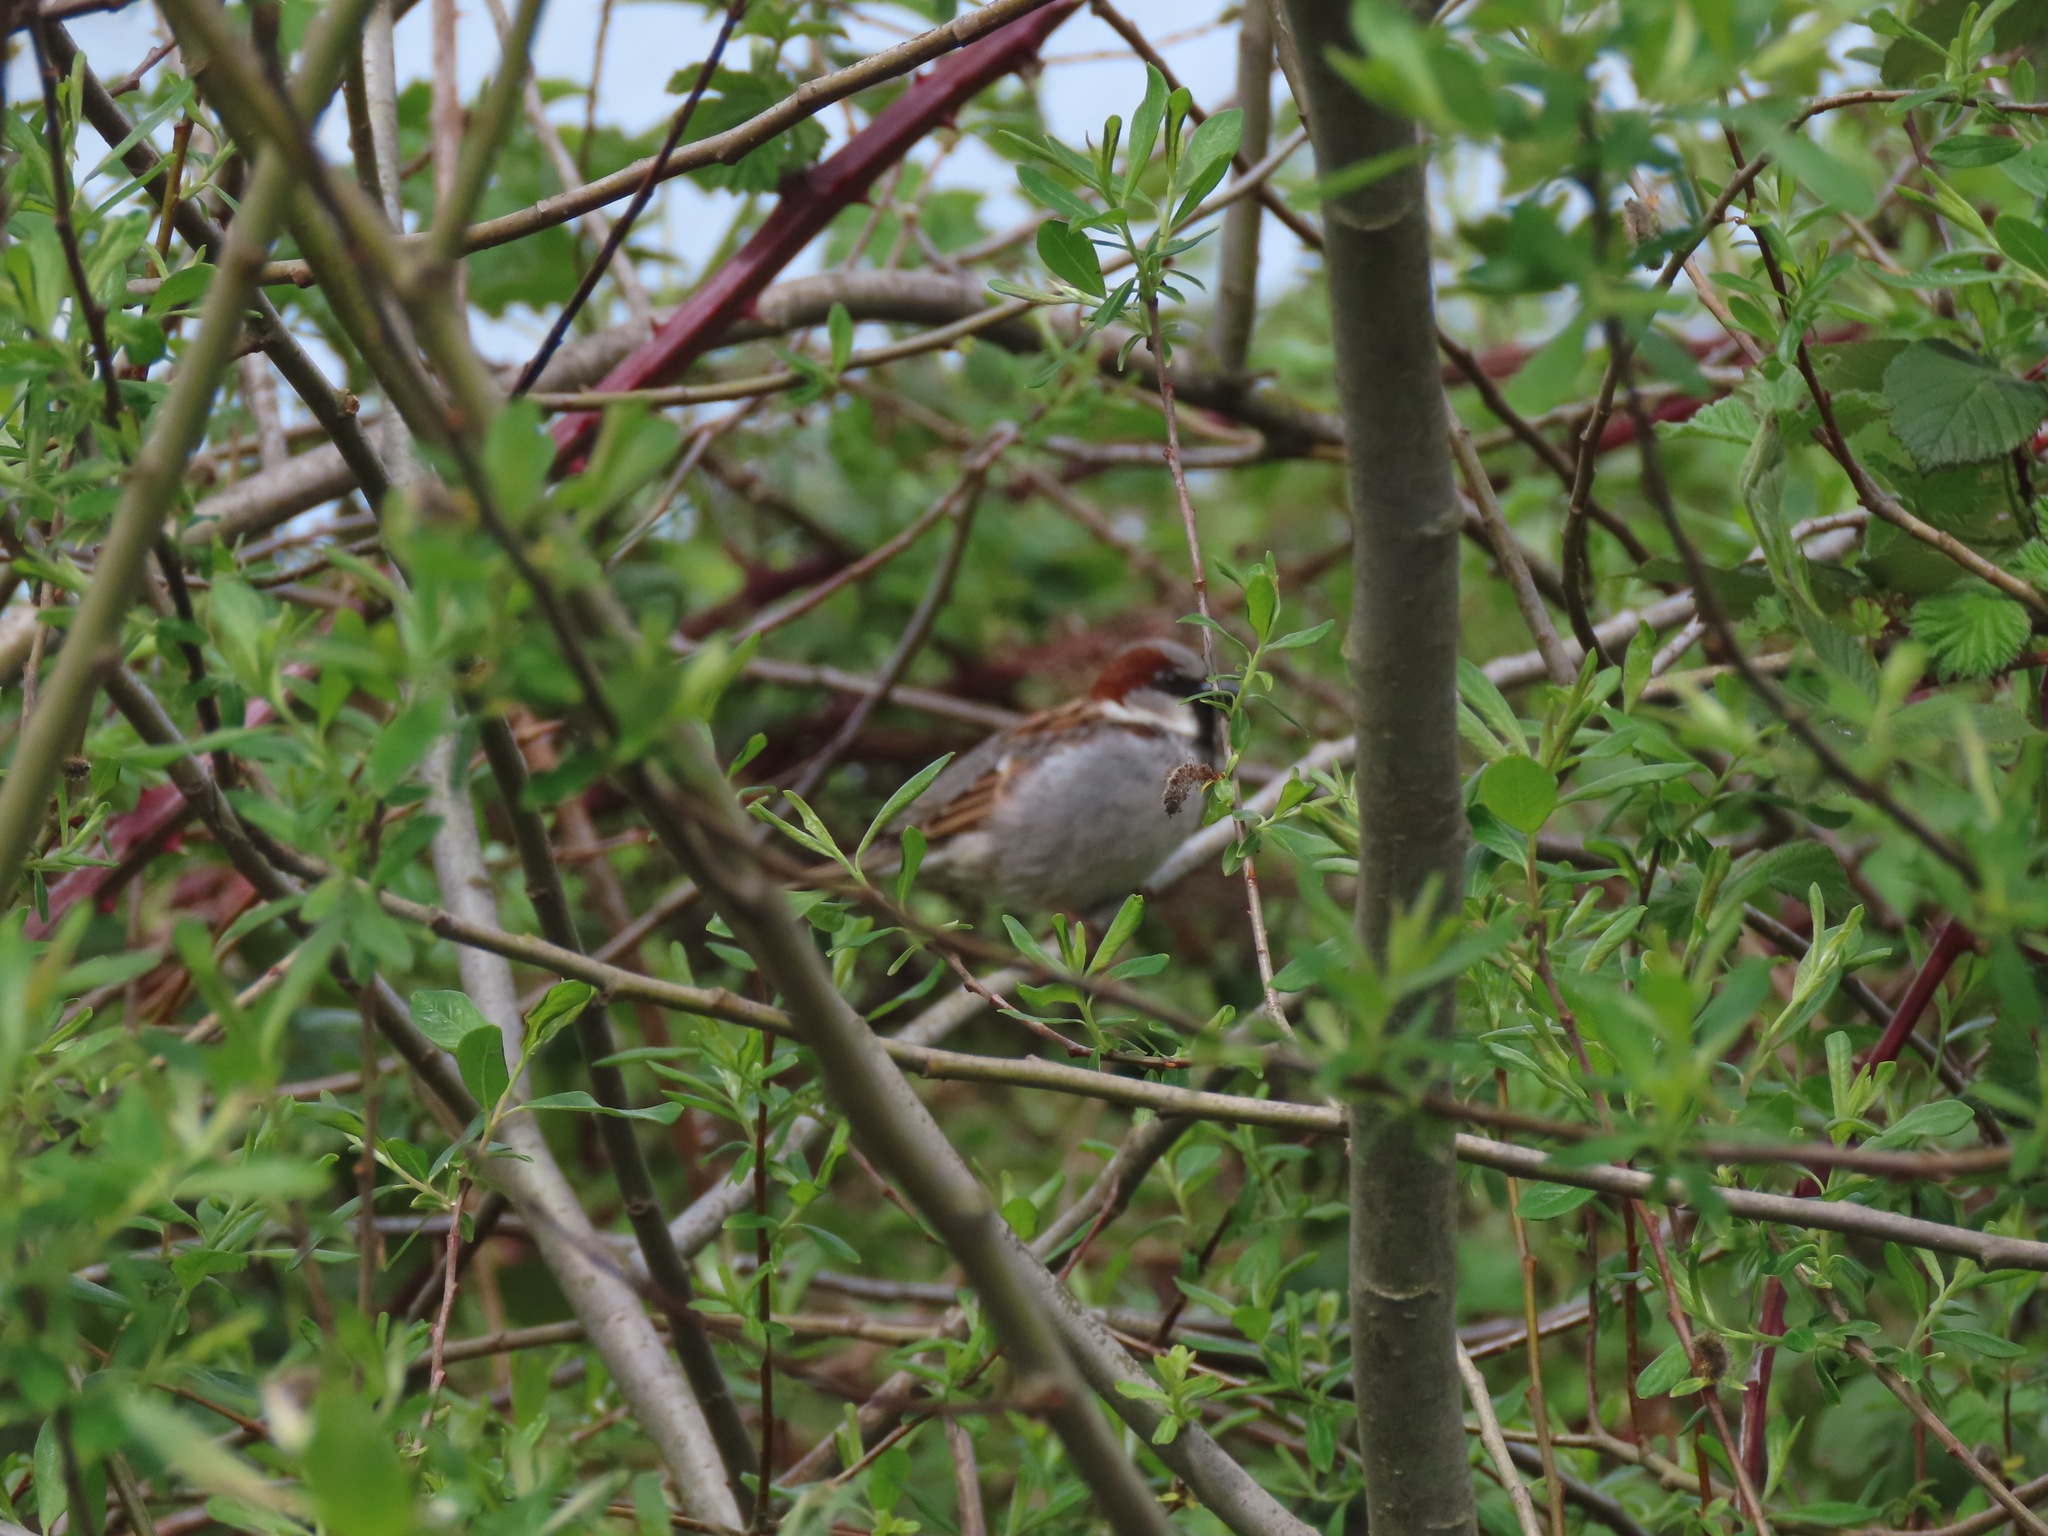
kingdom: Animalia
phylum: Chordata
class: Aves
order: Passeriformes
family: Passeridae
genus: Passer
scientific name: Passer domesticus
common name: House sparrow
